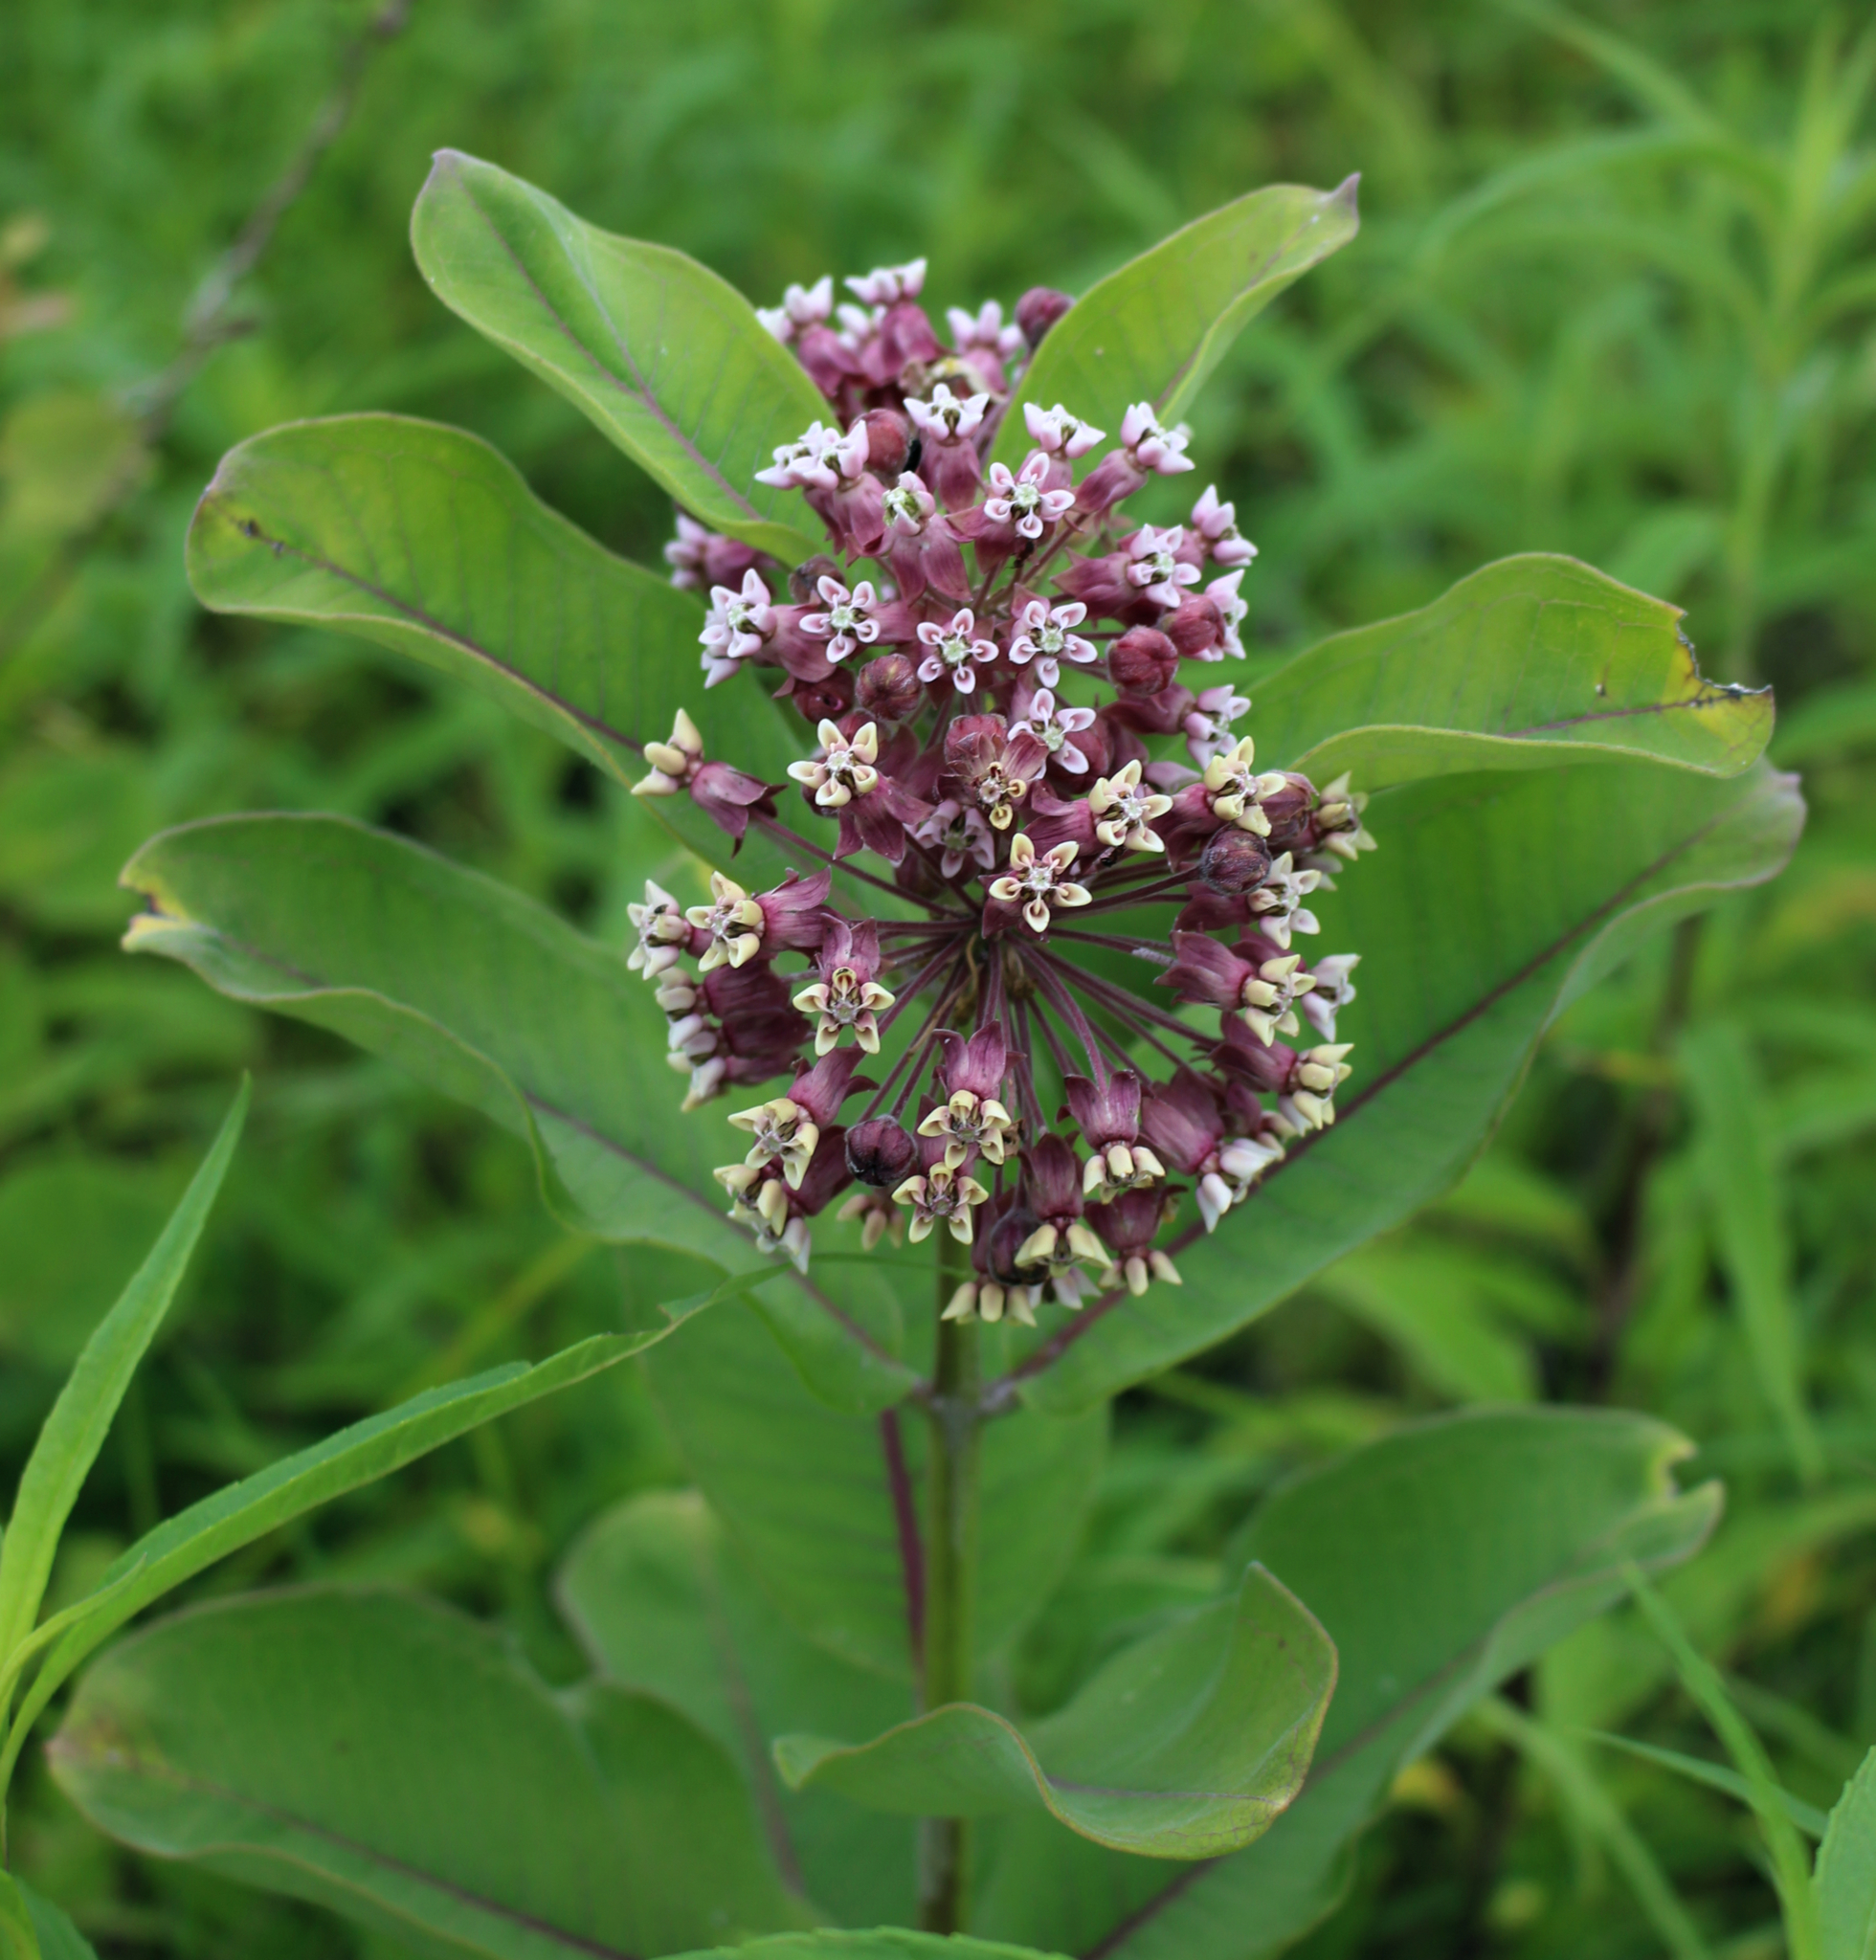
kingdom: Plantae
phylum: Tracheophyta
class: Magnoliopsida
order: Gentianales
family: Apocynaceae
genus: Asclepias
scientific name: Asclepias syriaca
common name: Common milkweed
